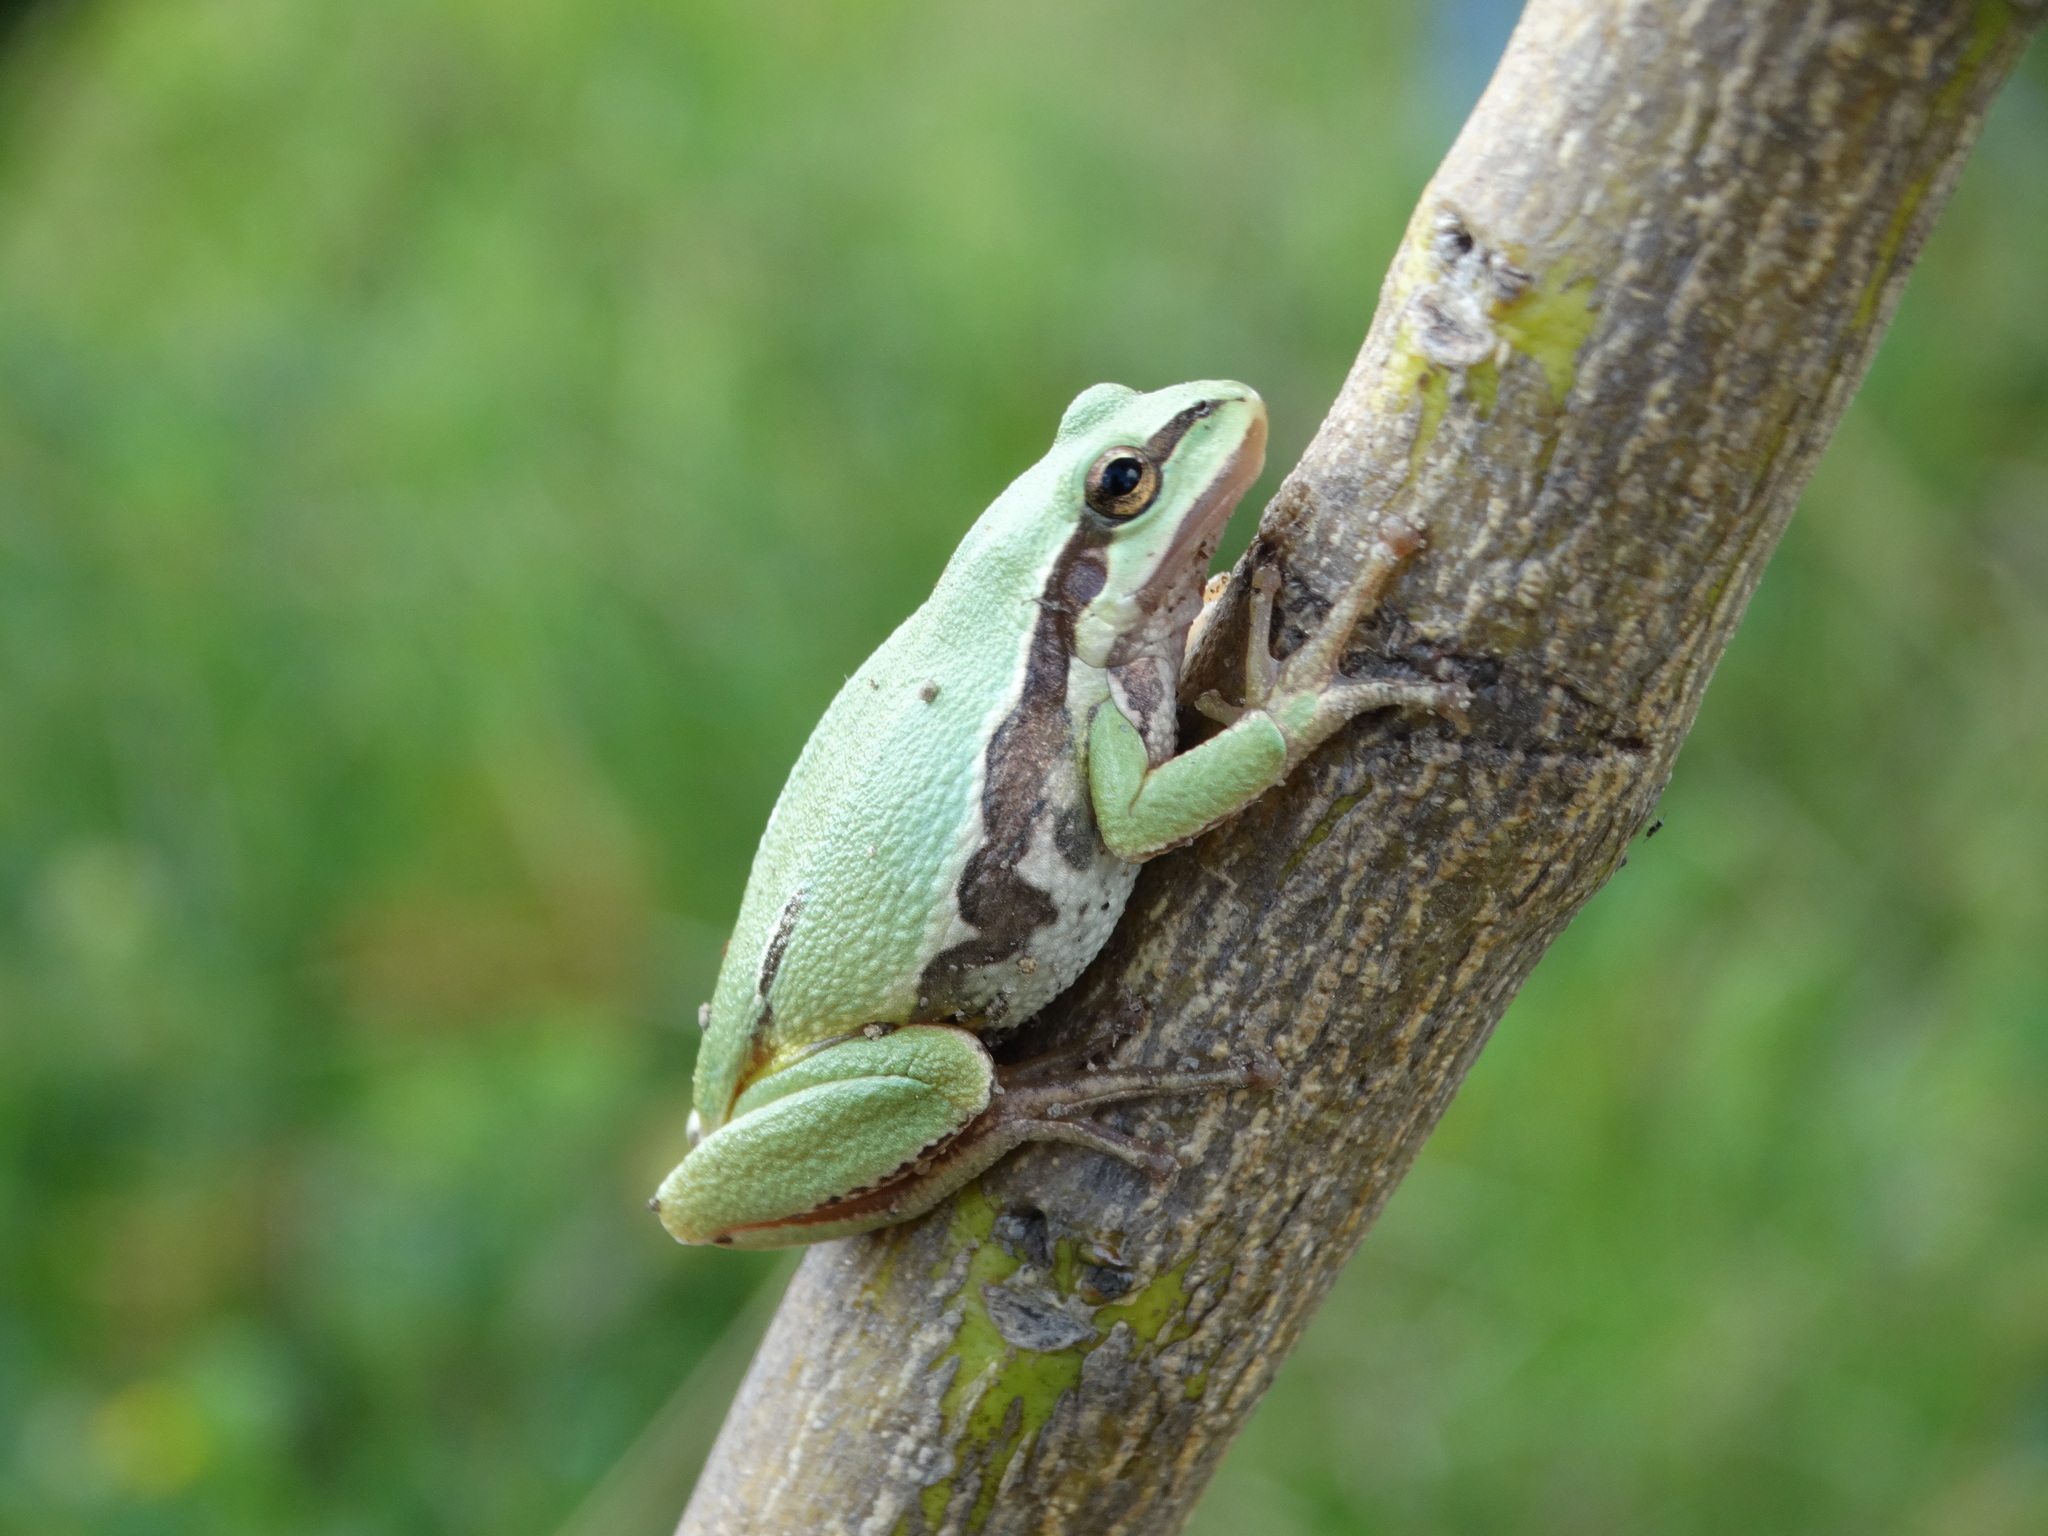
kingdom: Animalia
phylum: Chordata
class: Amphibia
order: Anura
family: Hylidae
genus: Dryophytes
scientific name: Dryophytes eximius
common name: Mountain treefrog
